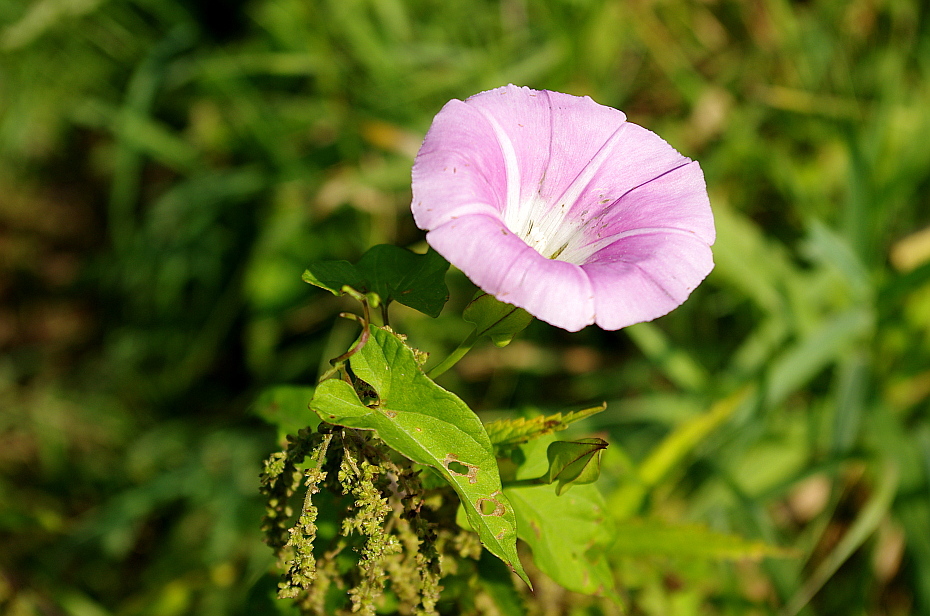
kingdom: Plantae
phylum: Tracheophyta
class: Magnoliopsida
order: Solanales
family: Convolvulaceae
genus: Calystegia
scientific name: Calystegia sepium
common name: Hedge bindweed
